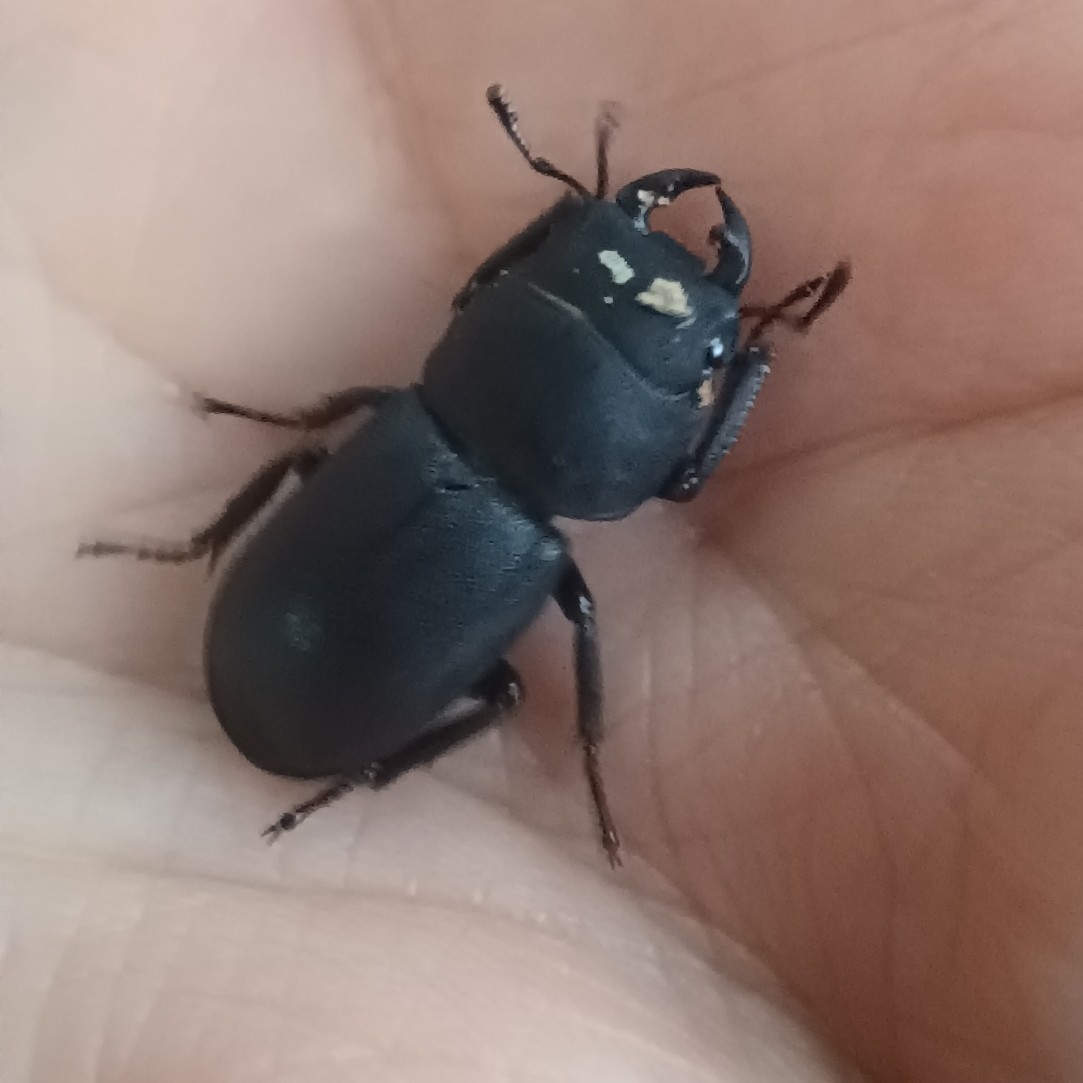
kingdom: Animalia
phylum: Arthropoda
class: Insecta
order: Coleoptera
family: Lucanidae
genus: Dorcus
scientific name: Dorcus parallelipipedus
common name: Lesser stag beetle
